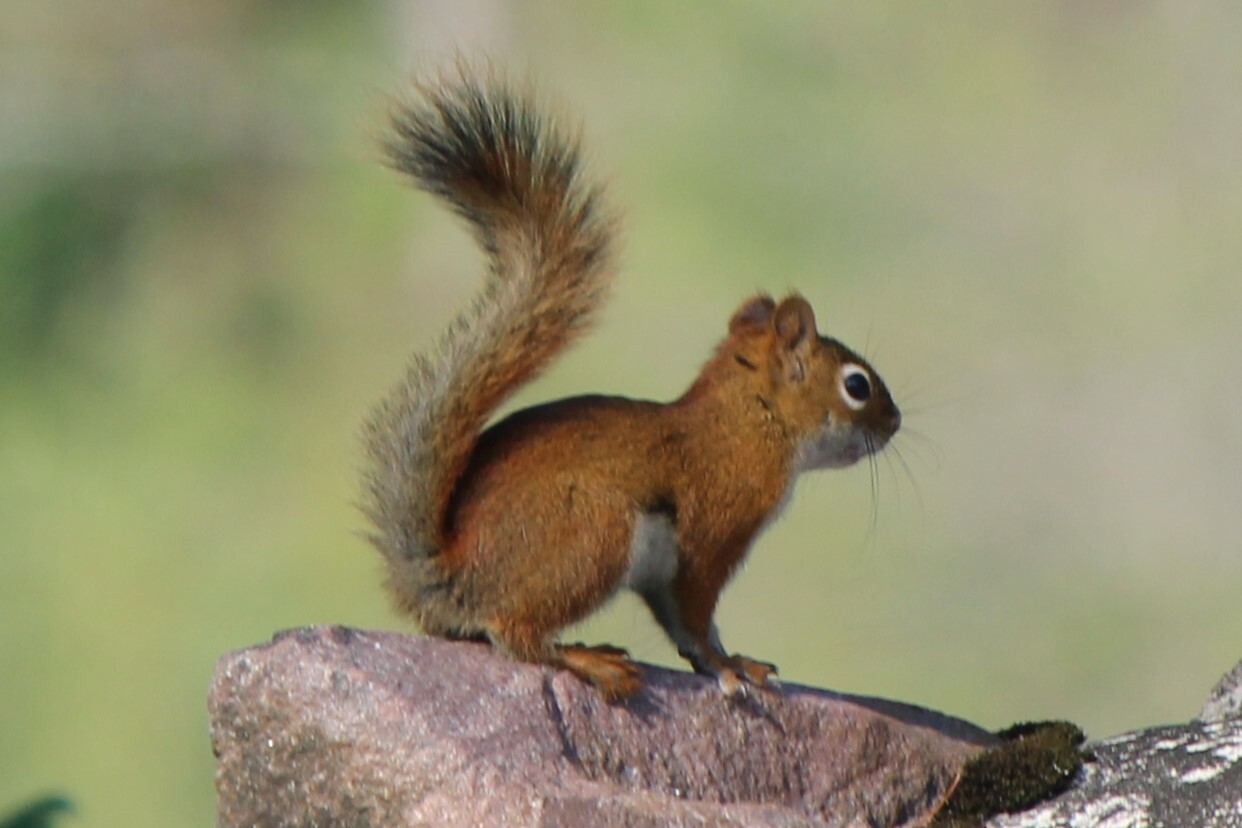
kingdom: Animalia
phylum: Chordata
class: Mammalia
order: Rodentia
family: Sciuridae
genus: Tamiasciurus
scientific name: Tamiasciurus hudsonicus
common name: Red squirrel
